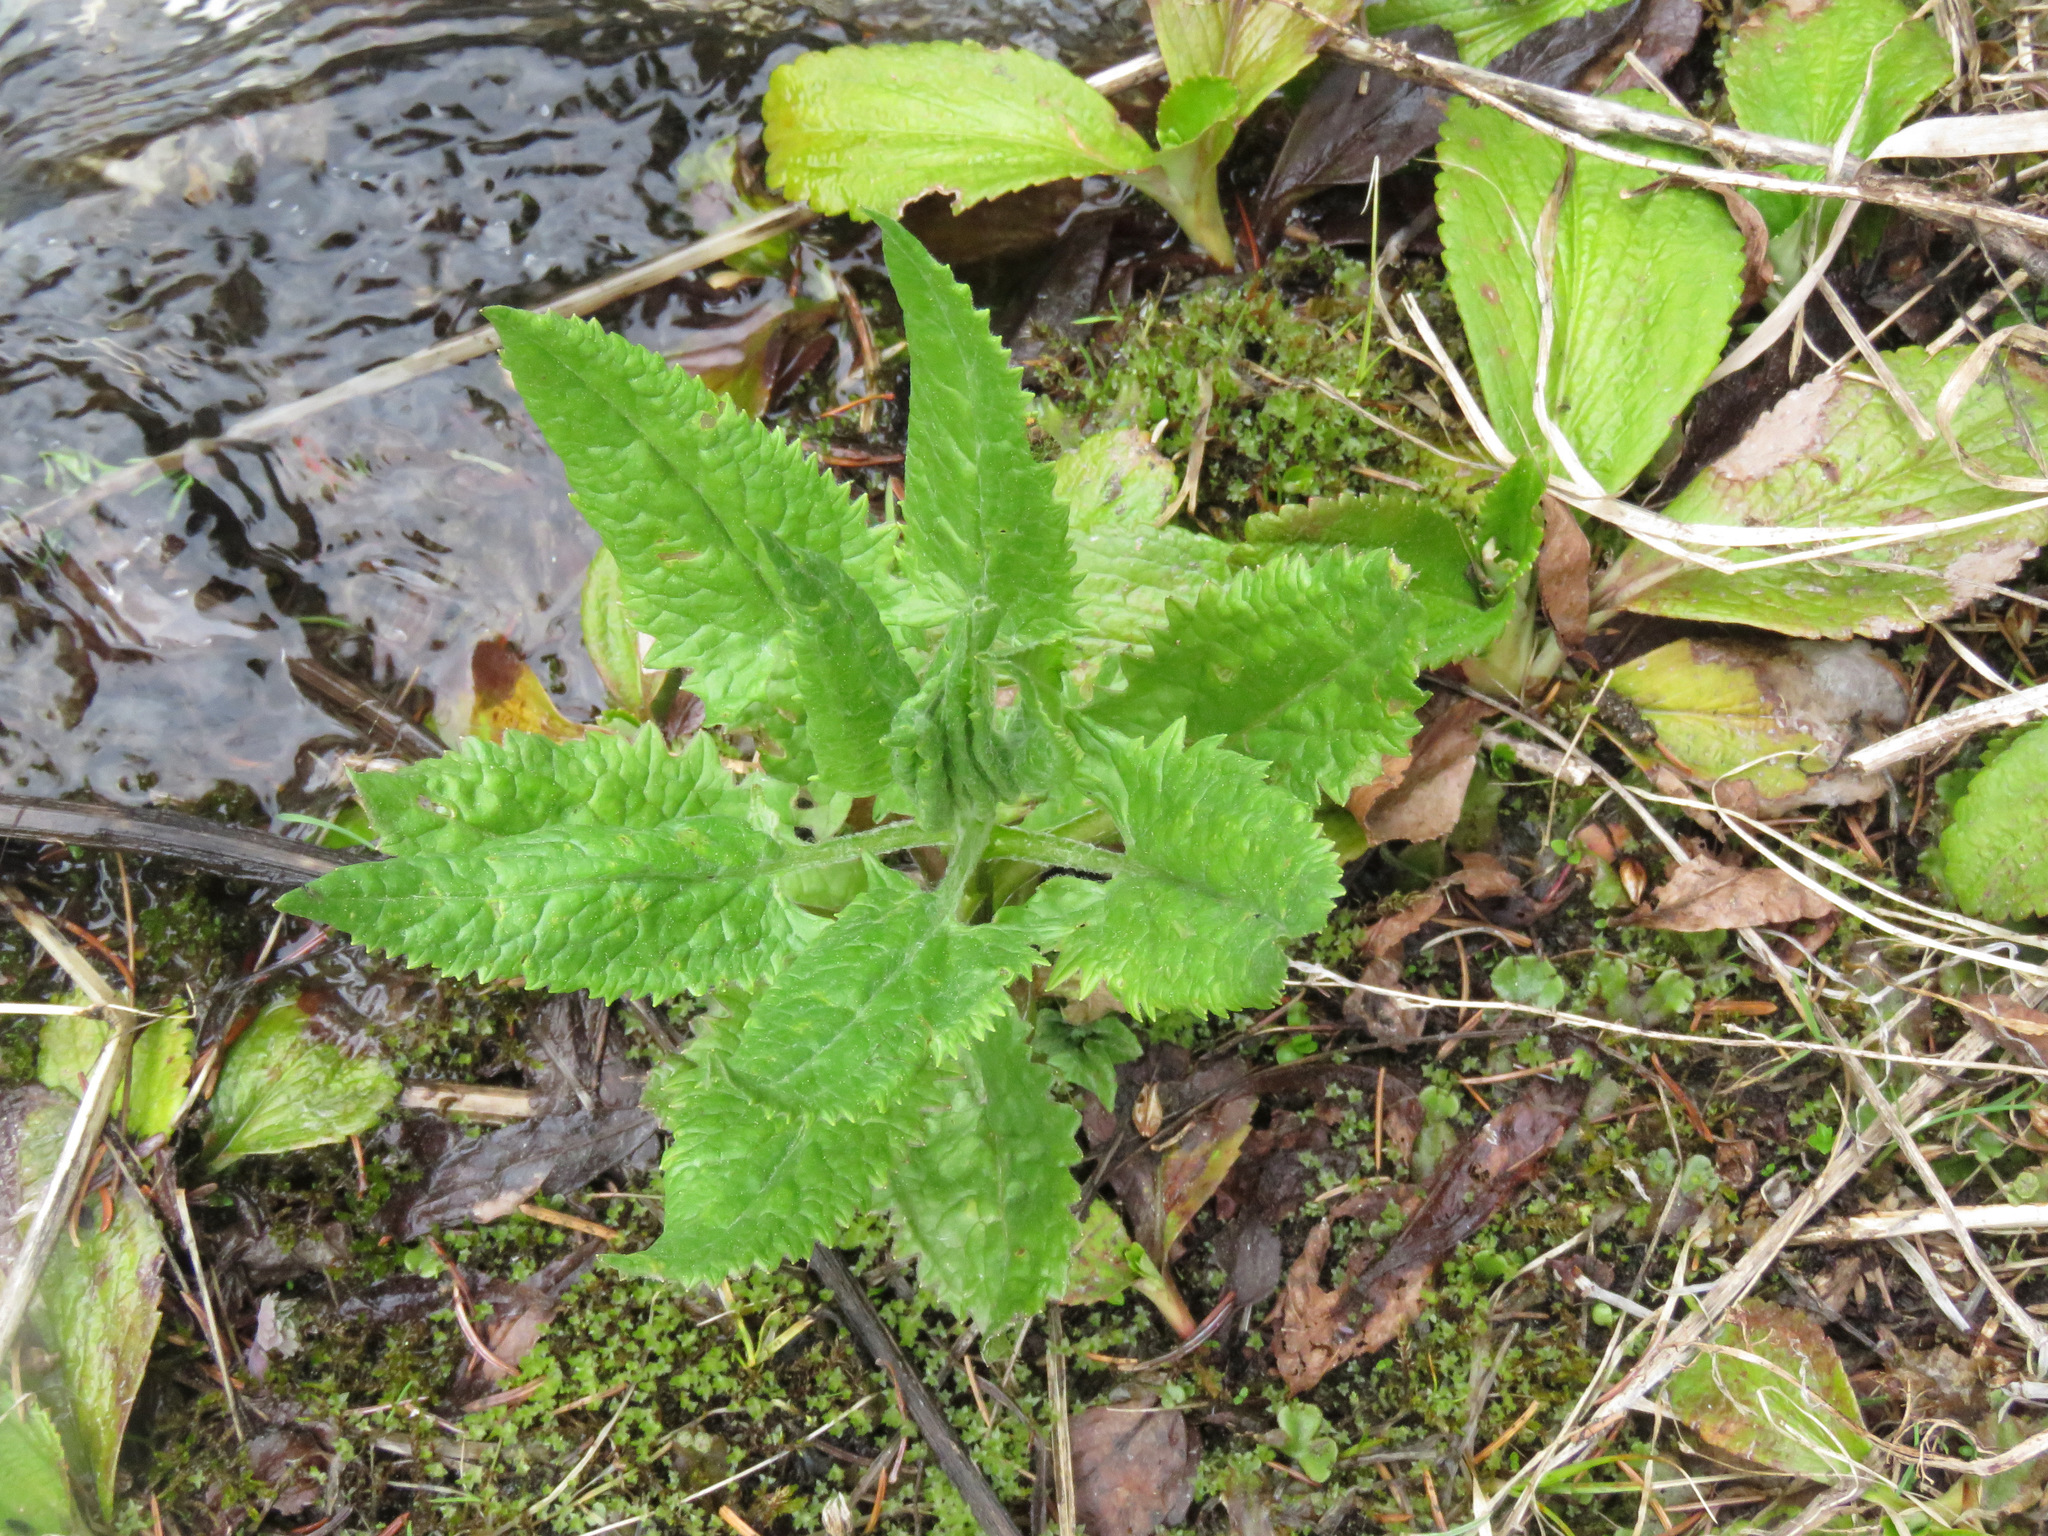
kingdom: Plantae
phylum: Tracheophyta
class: Magnoliopsida
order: Asterales
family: Asteraceae
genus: Senecio
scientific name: Senecio triangularis
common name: Arrowleaf butterweed
